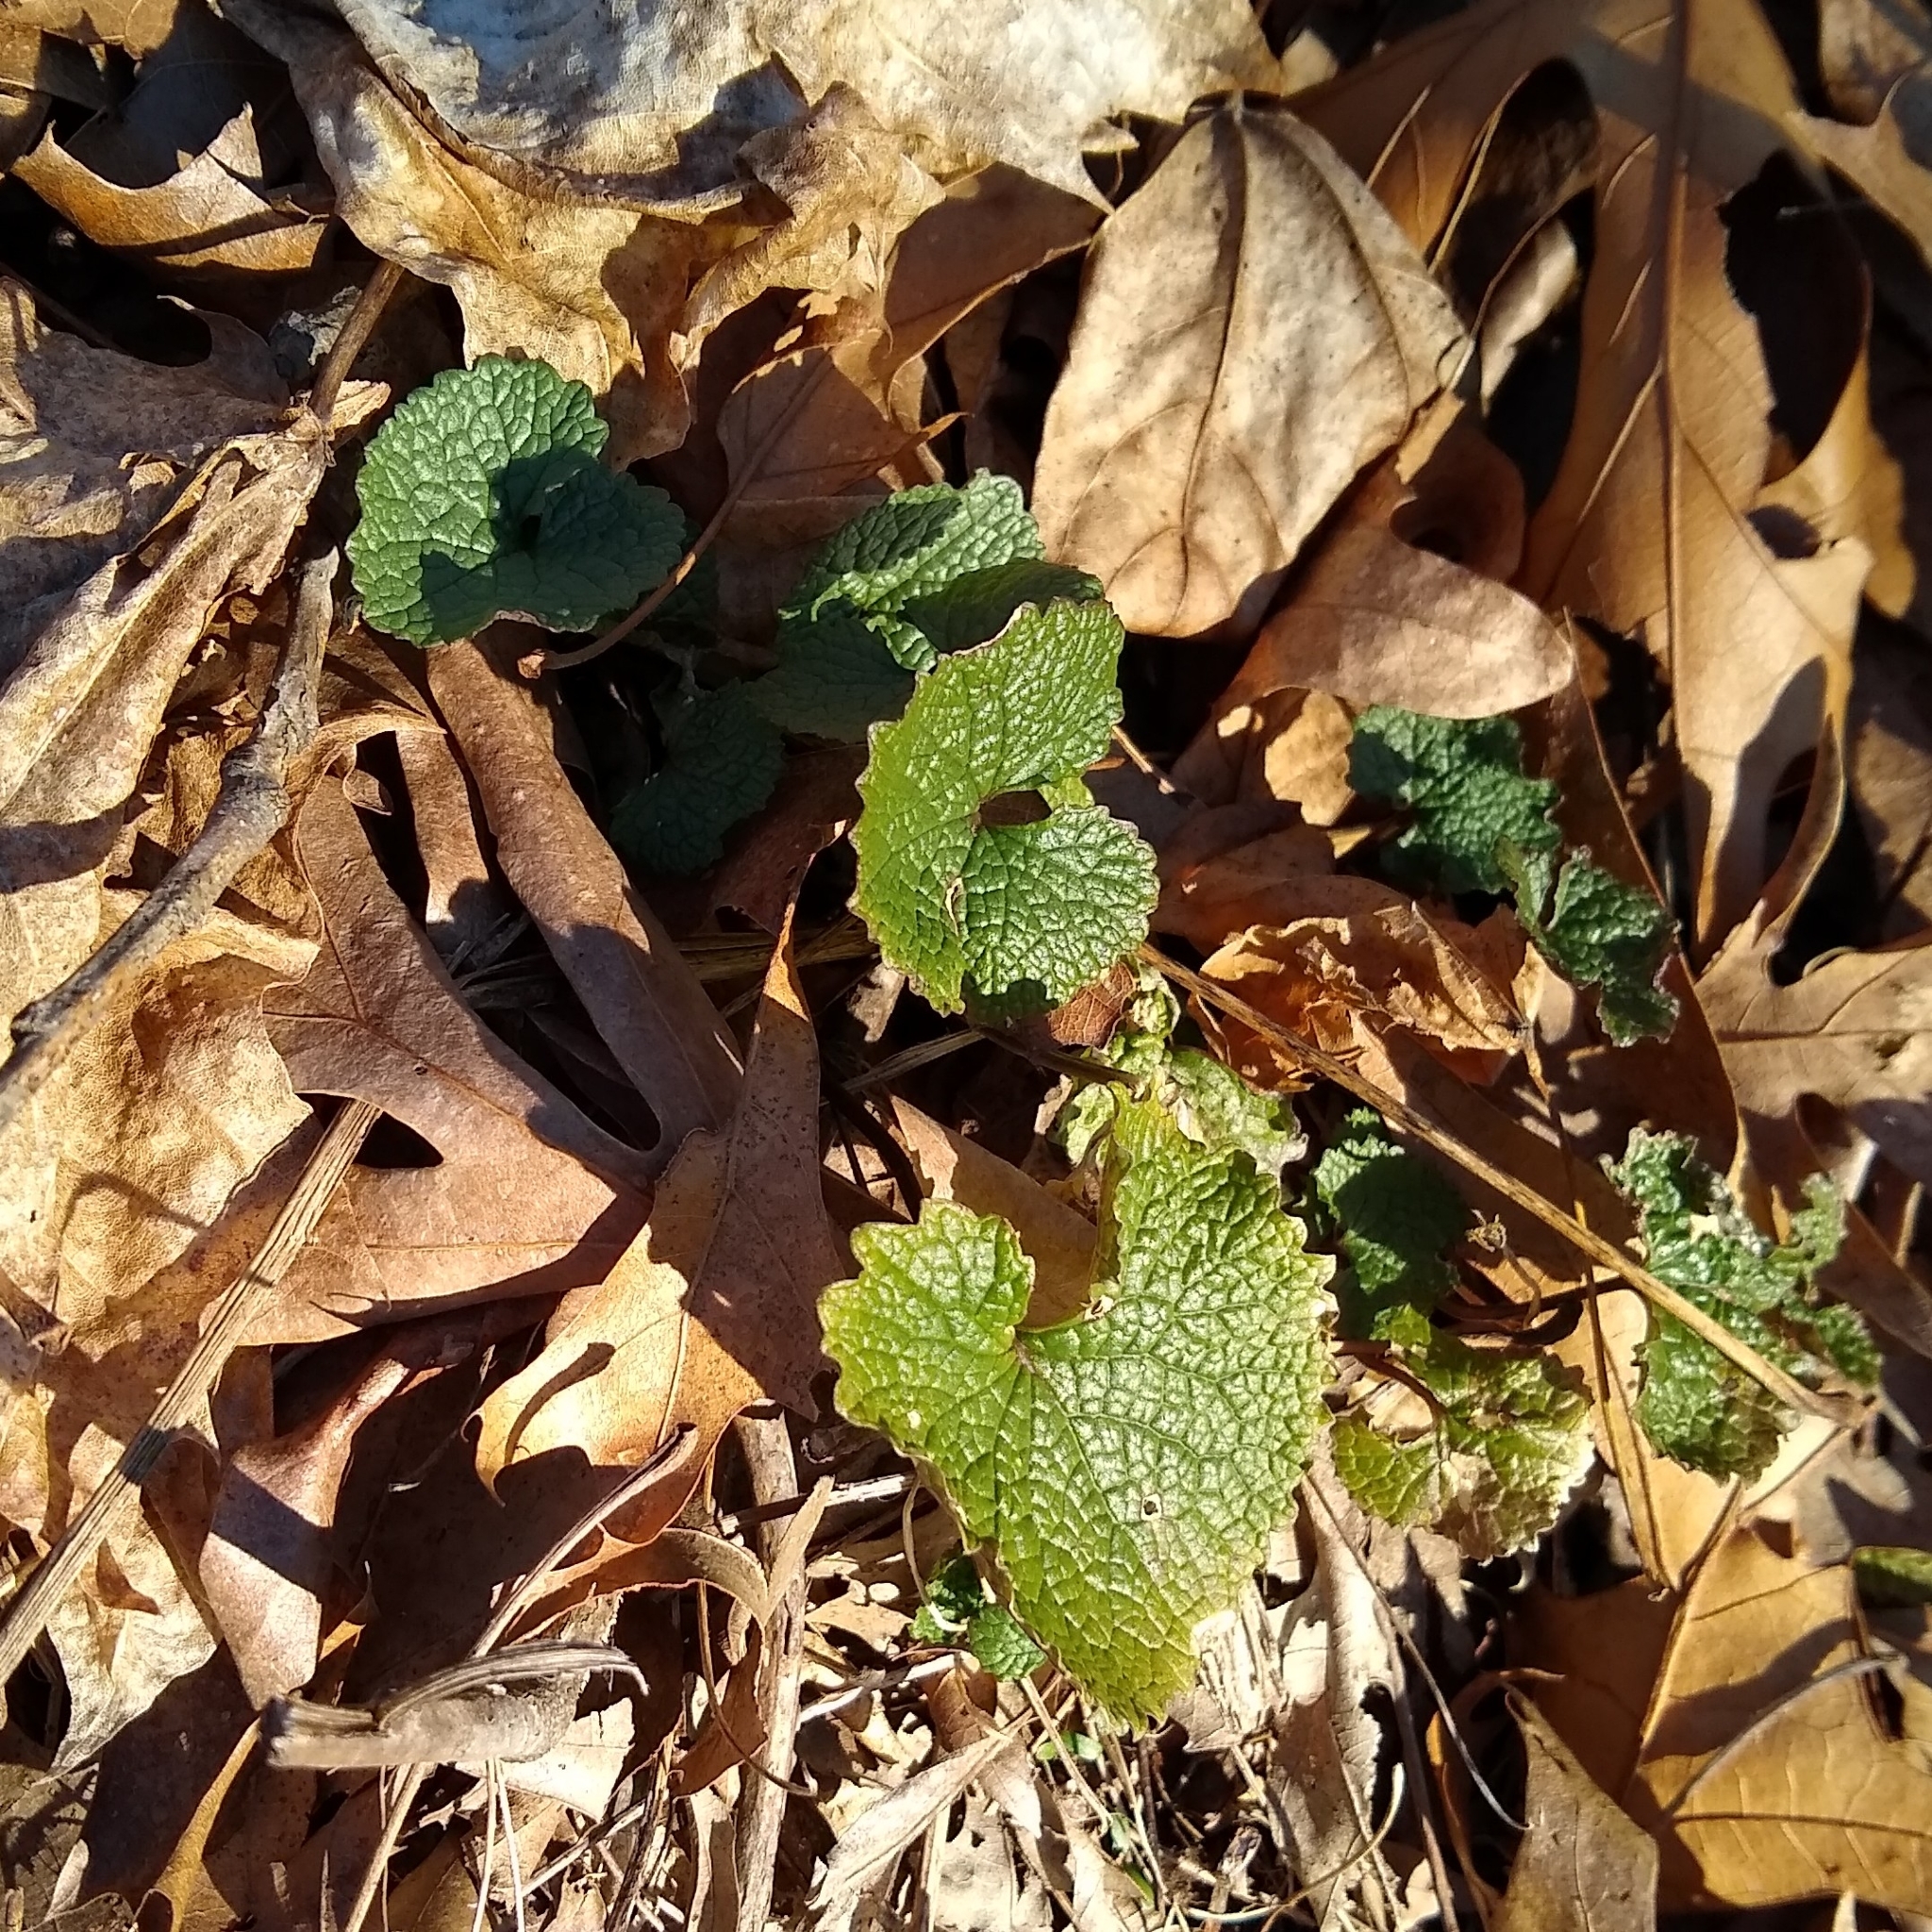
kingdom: Plantae
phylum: Tracheophyta
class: Magnoliopsida
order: Brassicales
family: Brassicaceae
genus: Alliaria
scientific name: Alliaria petiolata
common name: Garlic mustard
